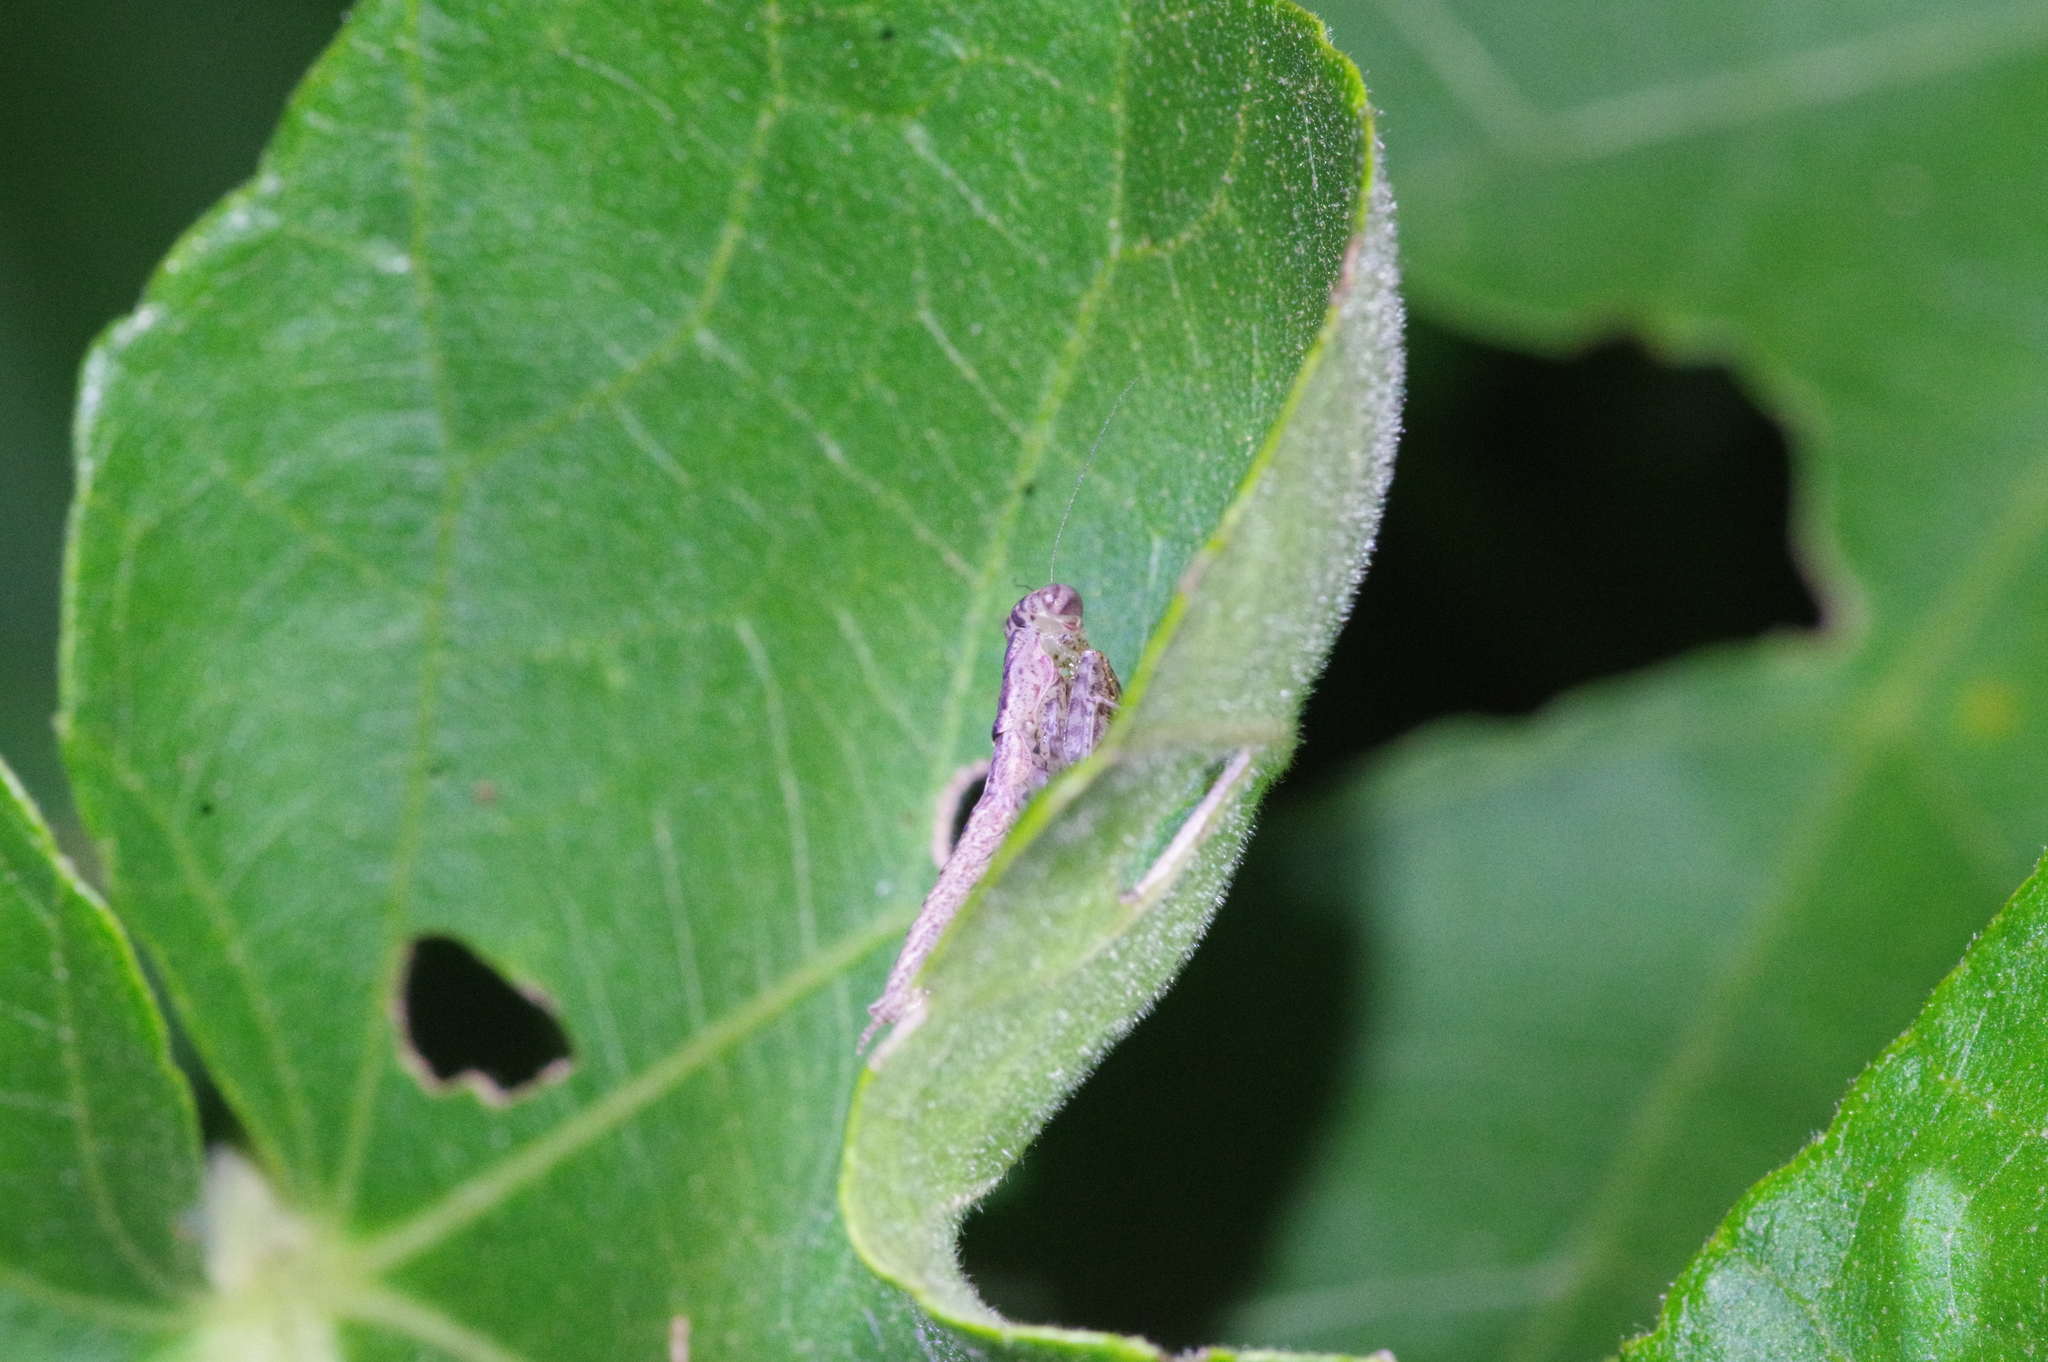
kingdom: Animalia
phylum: Arthropoda
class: Insecta
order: Mantodea
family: Gonypetidae
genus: Amantis
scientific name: Amantis nawai
